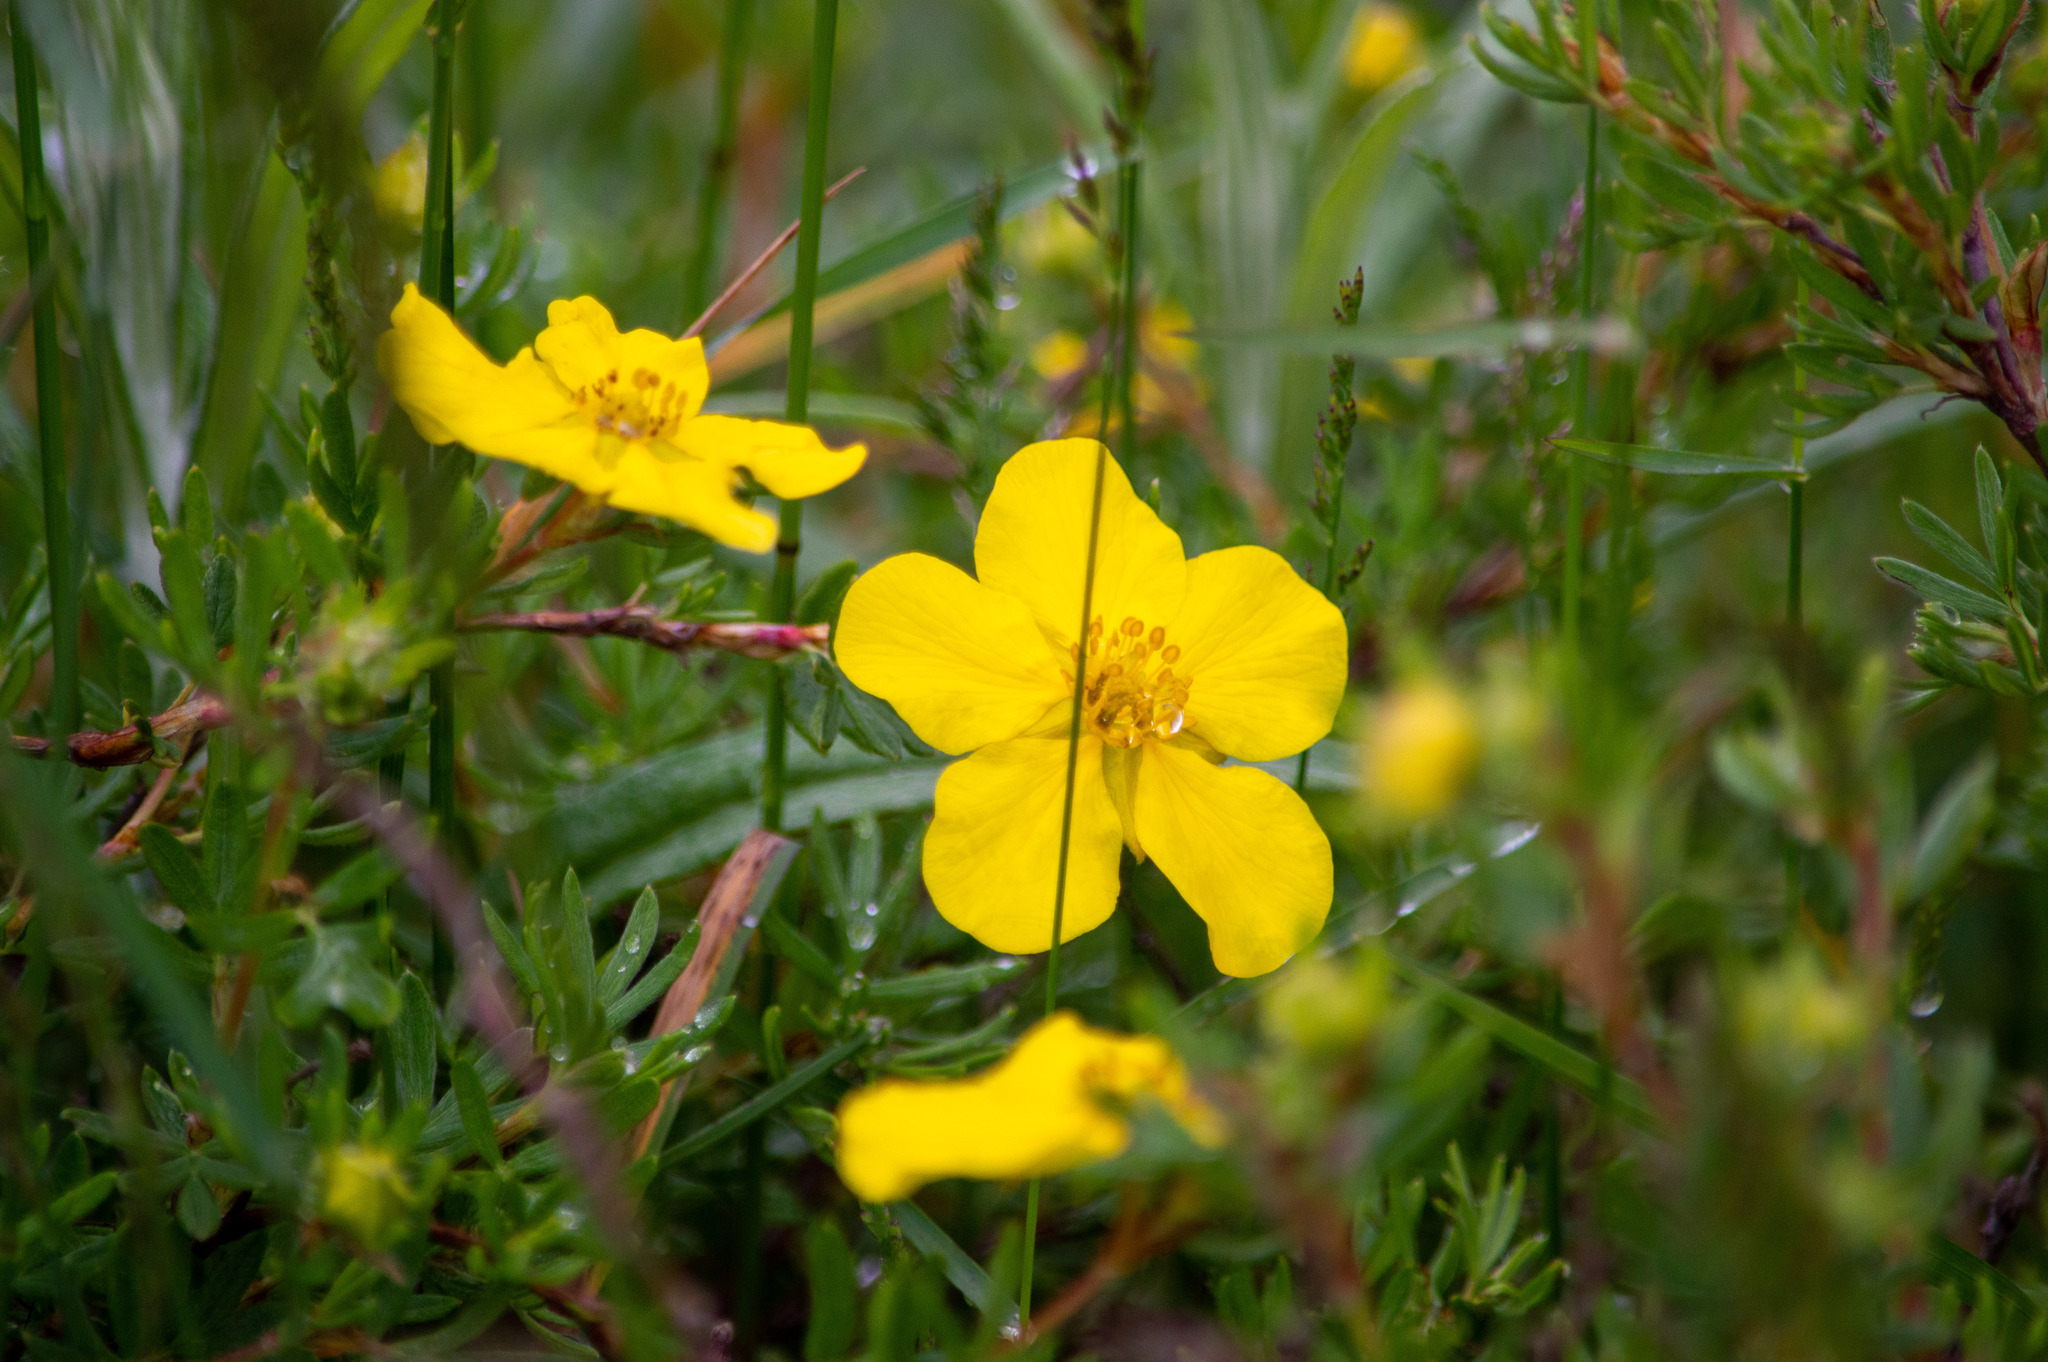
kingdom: Plantae
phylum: Tracheophyta
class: Magnoliopsida
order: Rosales
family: Rosaceae
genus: Dasiphora
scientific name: Dasiphora fruticosa
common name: Shrubby cinquefoil
